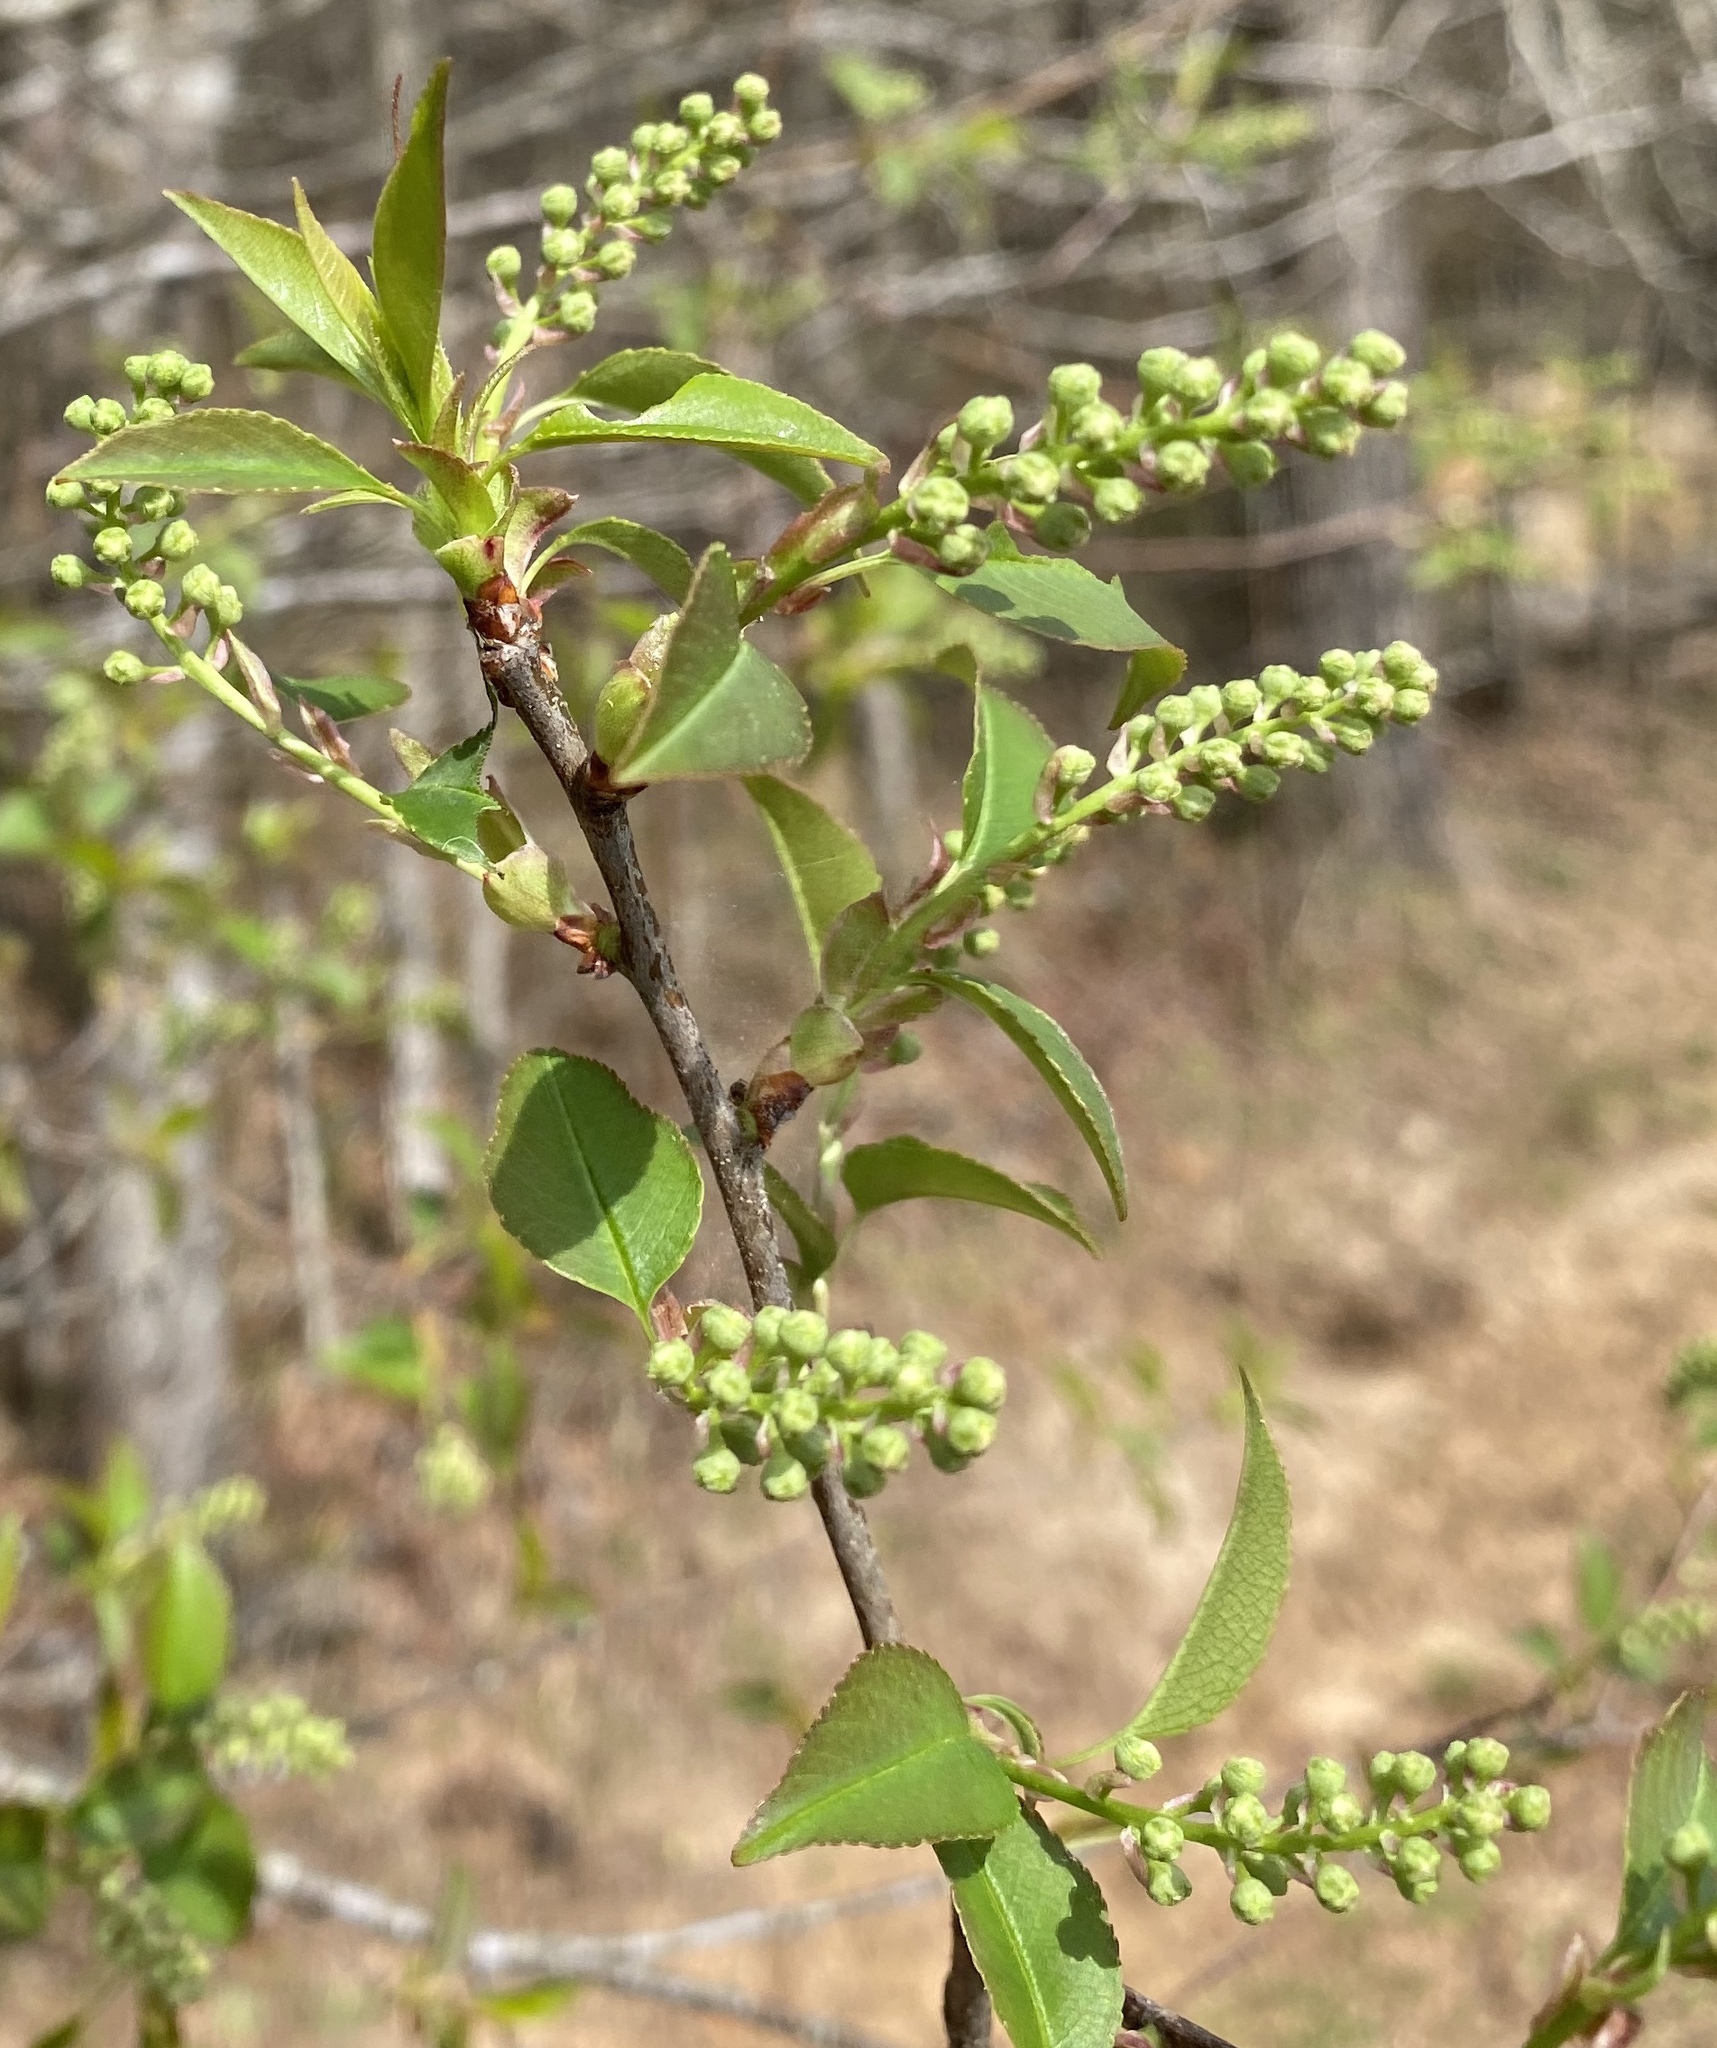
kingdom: Plantae
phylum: Tracheophyta
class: Magnoliopsida
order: Rosales
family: Rosaceae
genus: Prunus
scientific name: Prunus serotina
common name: Black cherry
